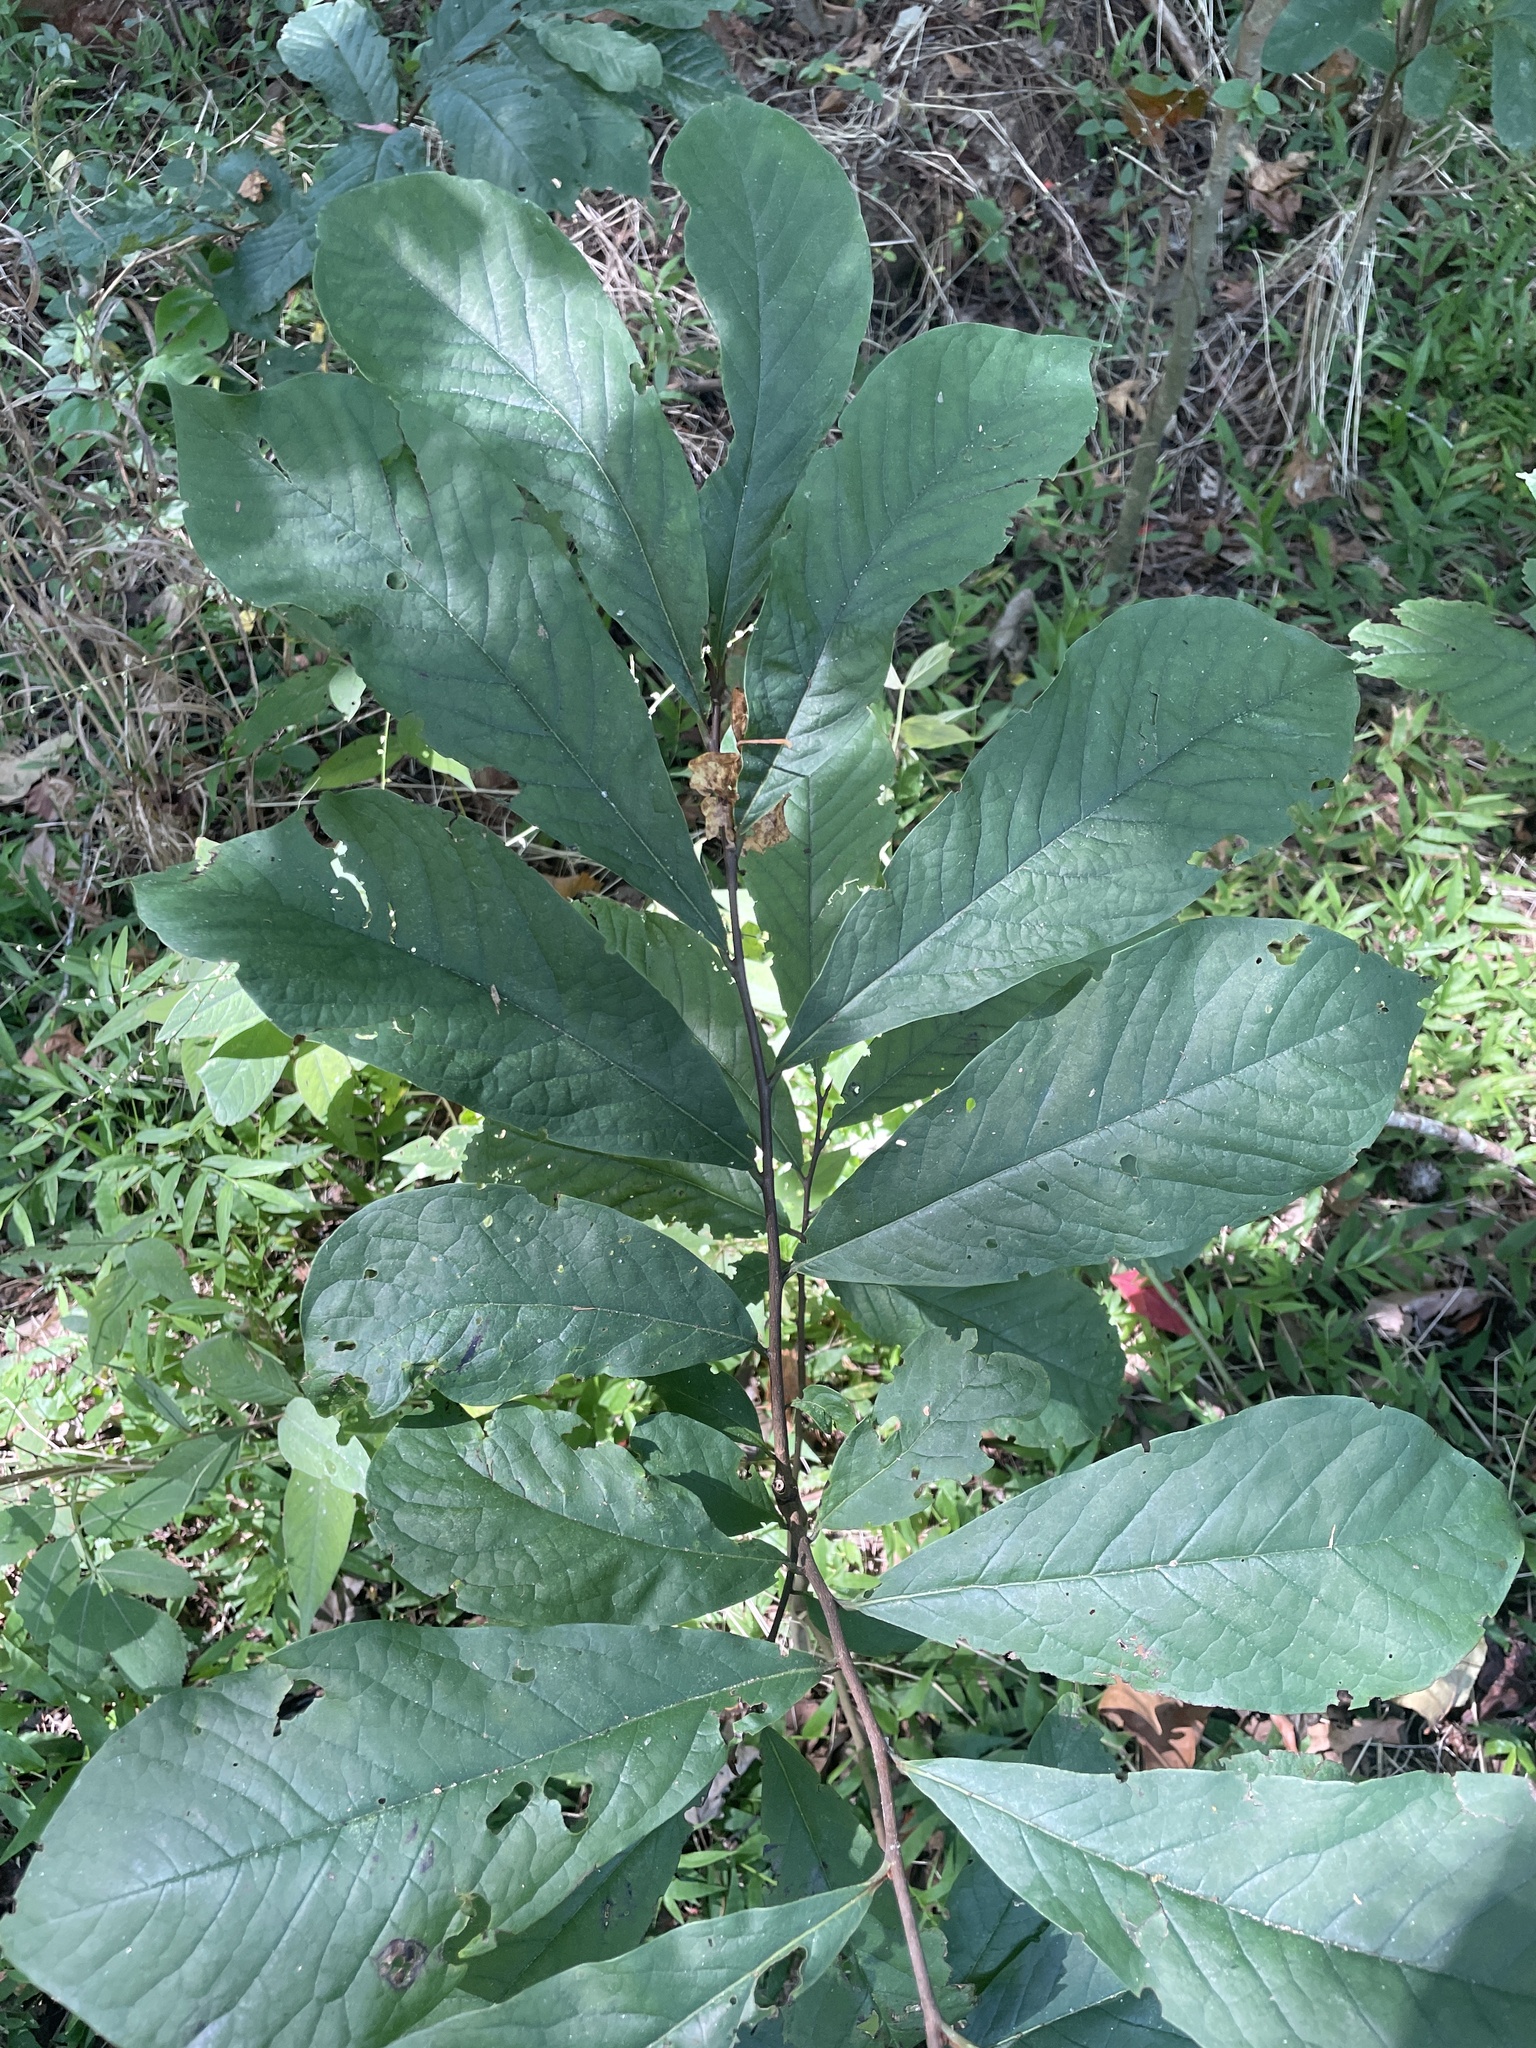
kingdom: Plantae
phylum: Tracheophyta
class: Magnoliopsida
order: Magnoliales
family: Annonaceae
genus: Asimina
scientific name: Asimina triloba
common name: Dog-banana
